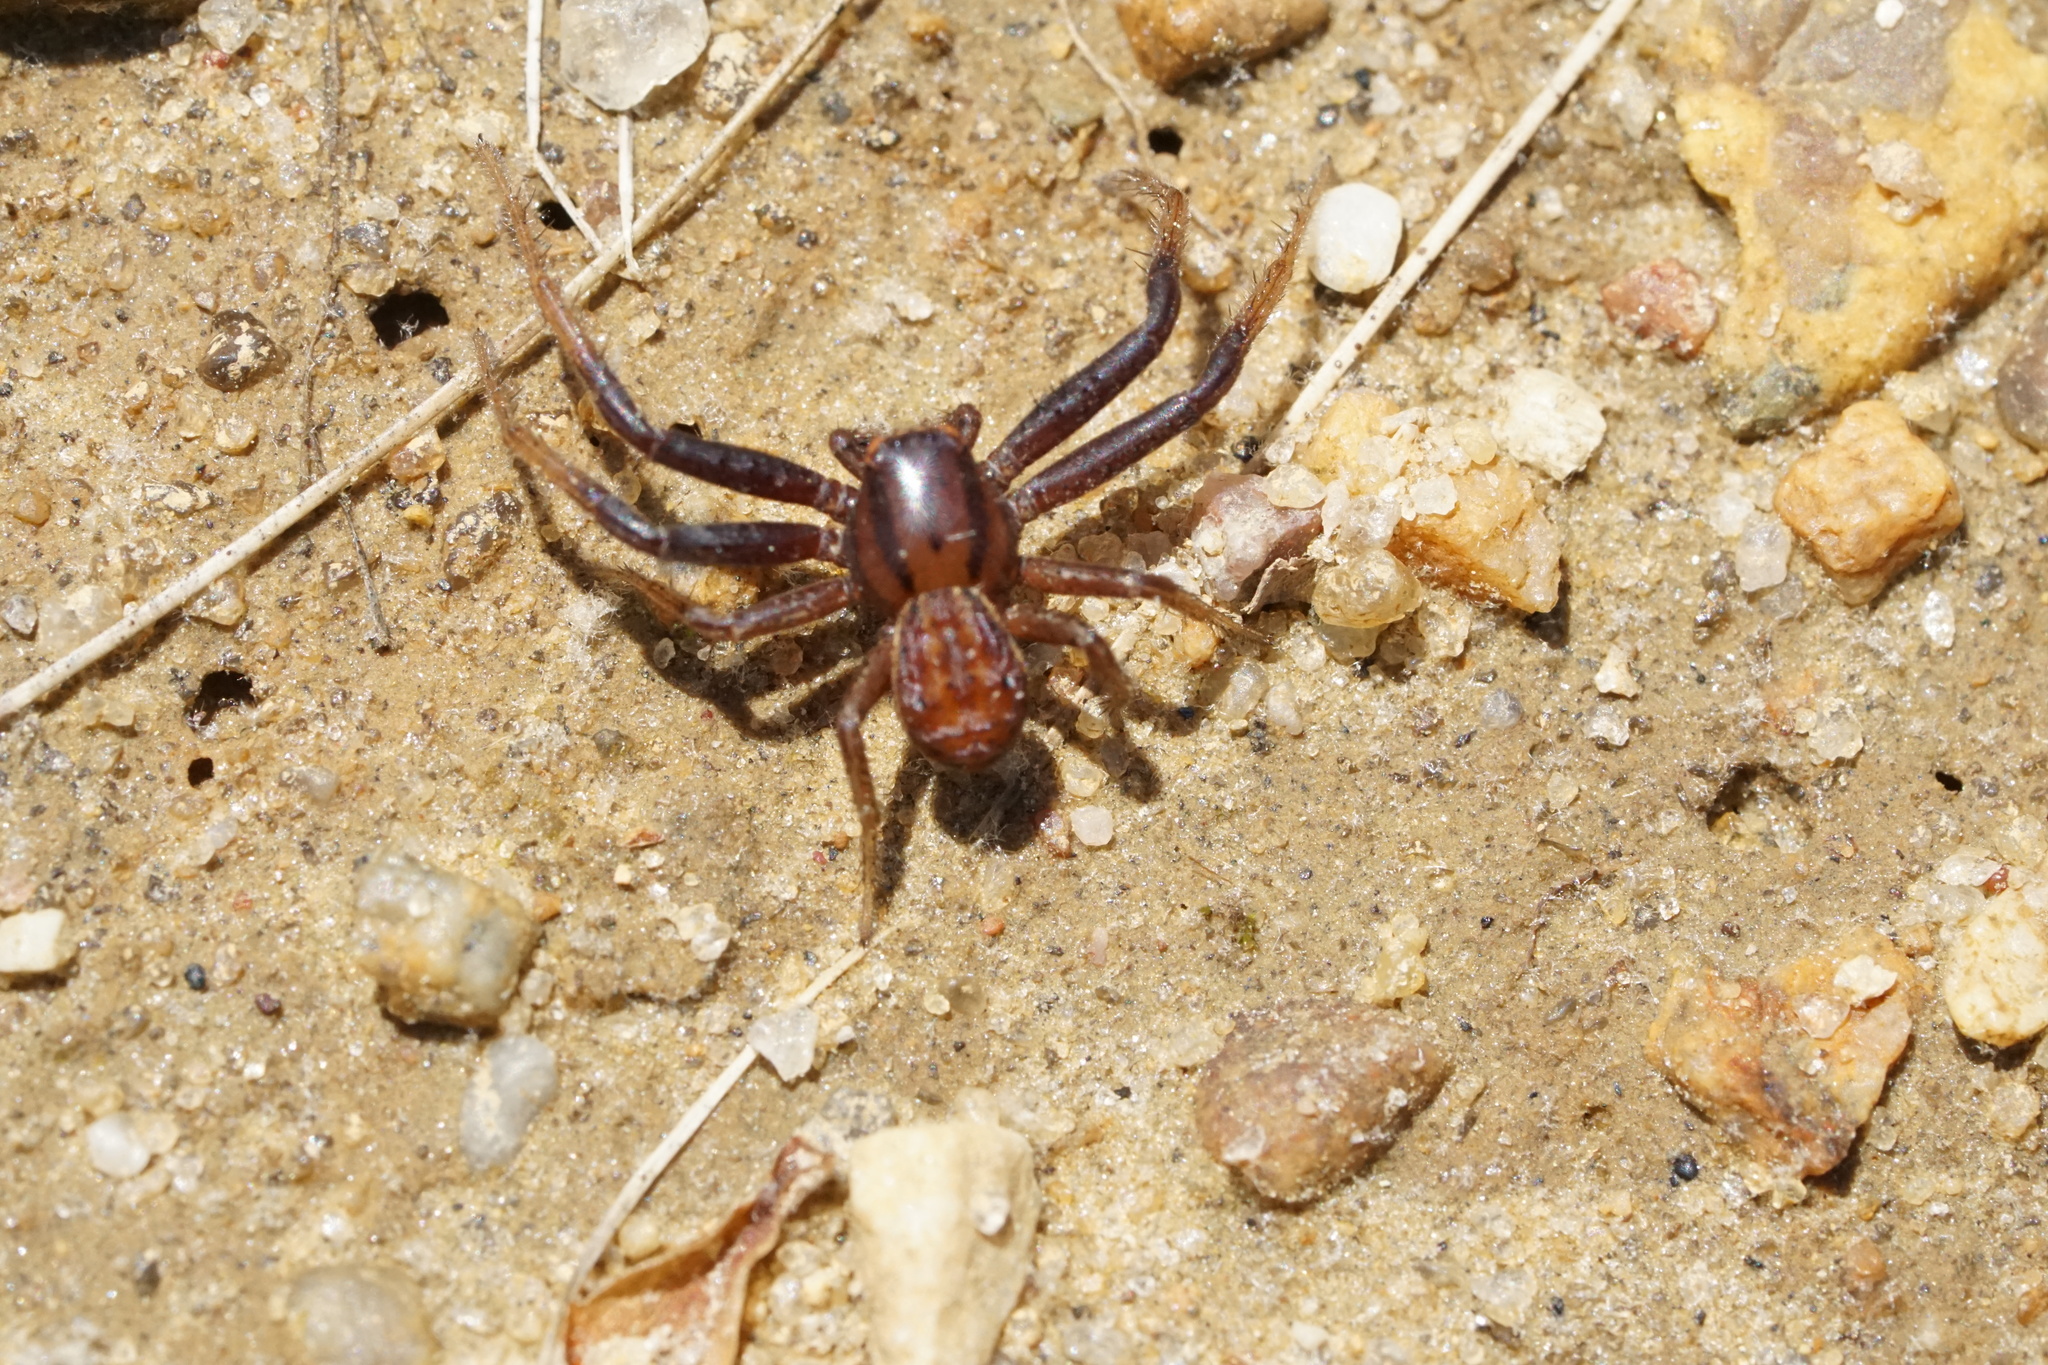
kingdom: Animalia
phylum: Arthropoda
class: Arachnida
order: Araneae
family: Thomisidae
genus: Xysticus
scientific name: Xysticus
